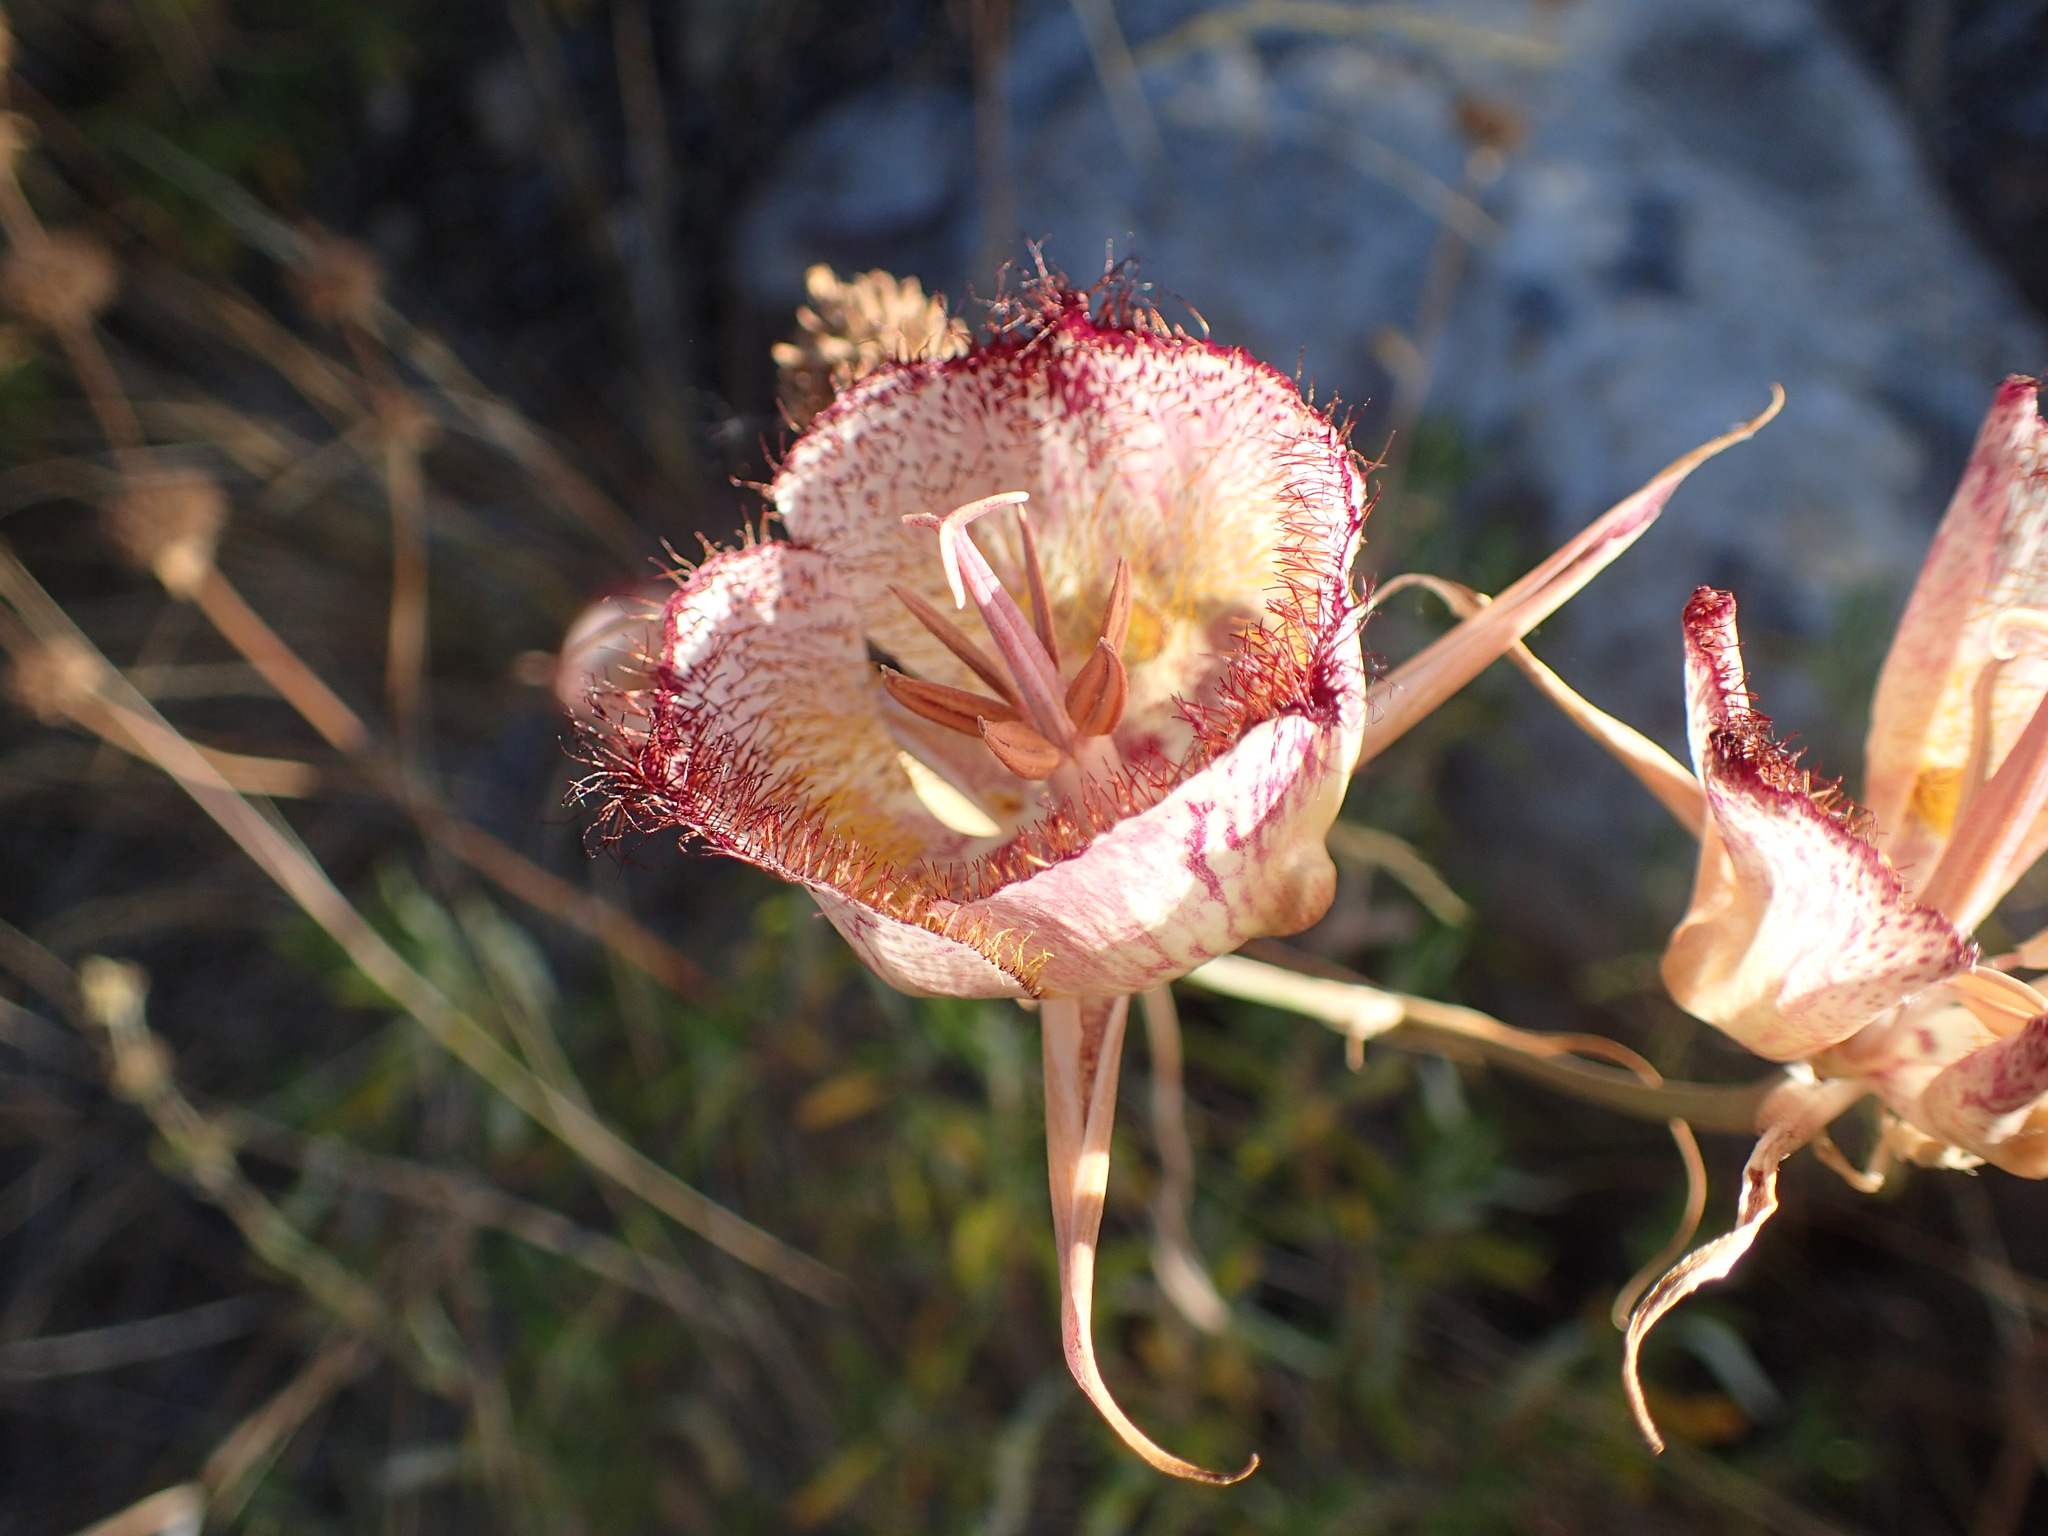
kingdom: Plantae
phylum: Tracheophyta
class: Liliopsida
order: Liliales
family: Liliaceae
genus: Calochortus
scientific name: Calochortus fimbriatus
